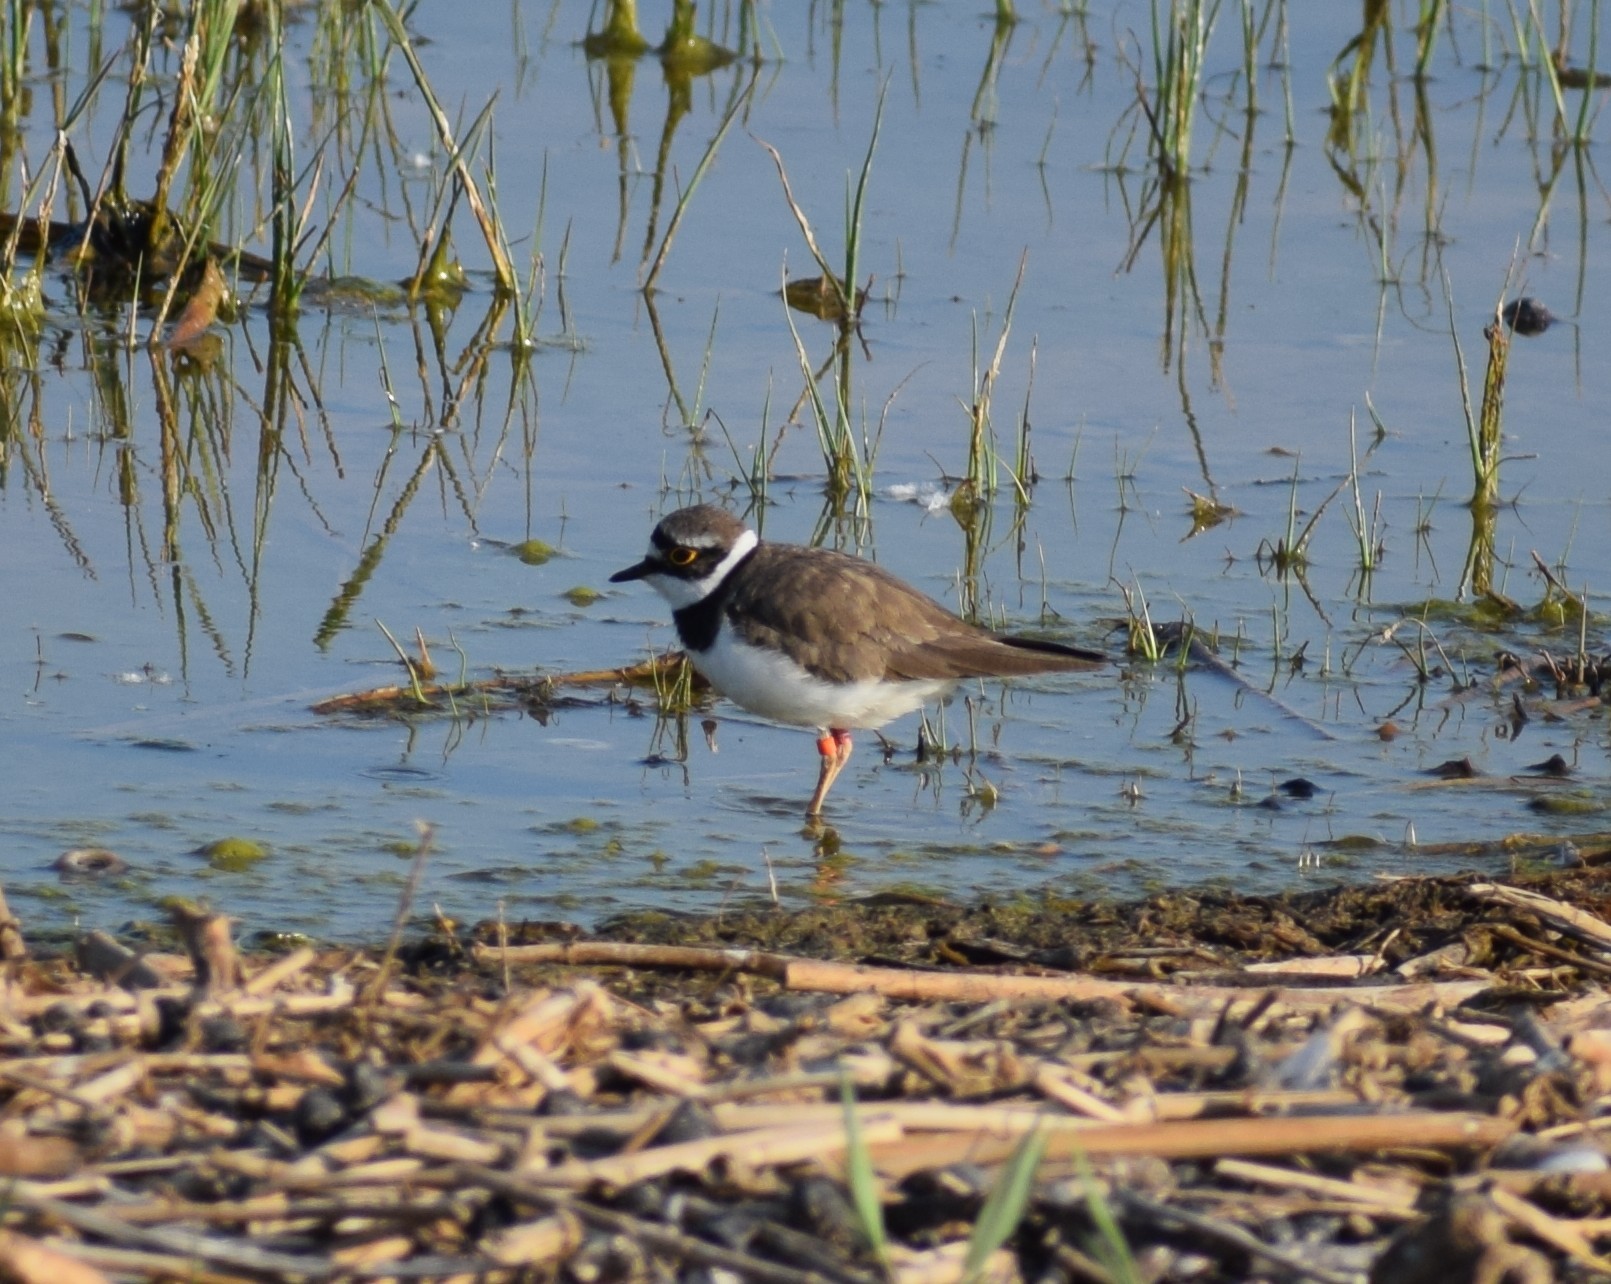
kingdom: Animalia
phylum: Chordata
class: Aves
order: Charadriiformes
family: Charadriidae
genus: Charadrius
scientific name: Charadrius dubius
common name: Little ringed plover
